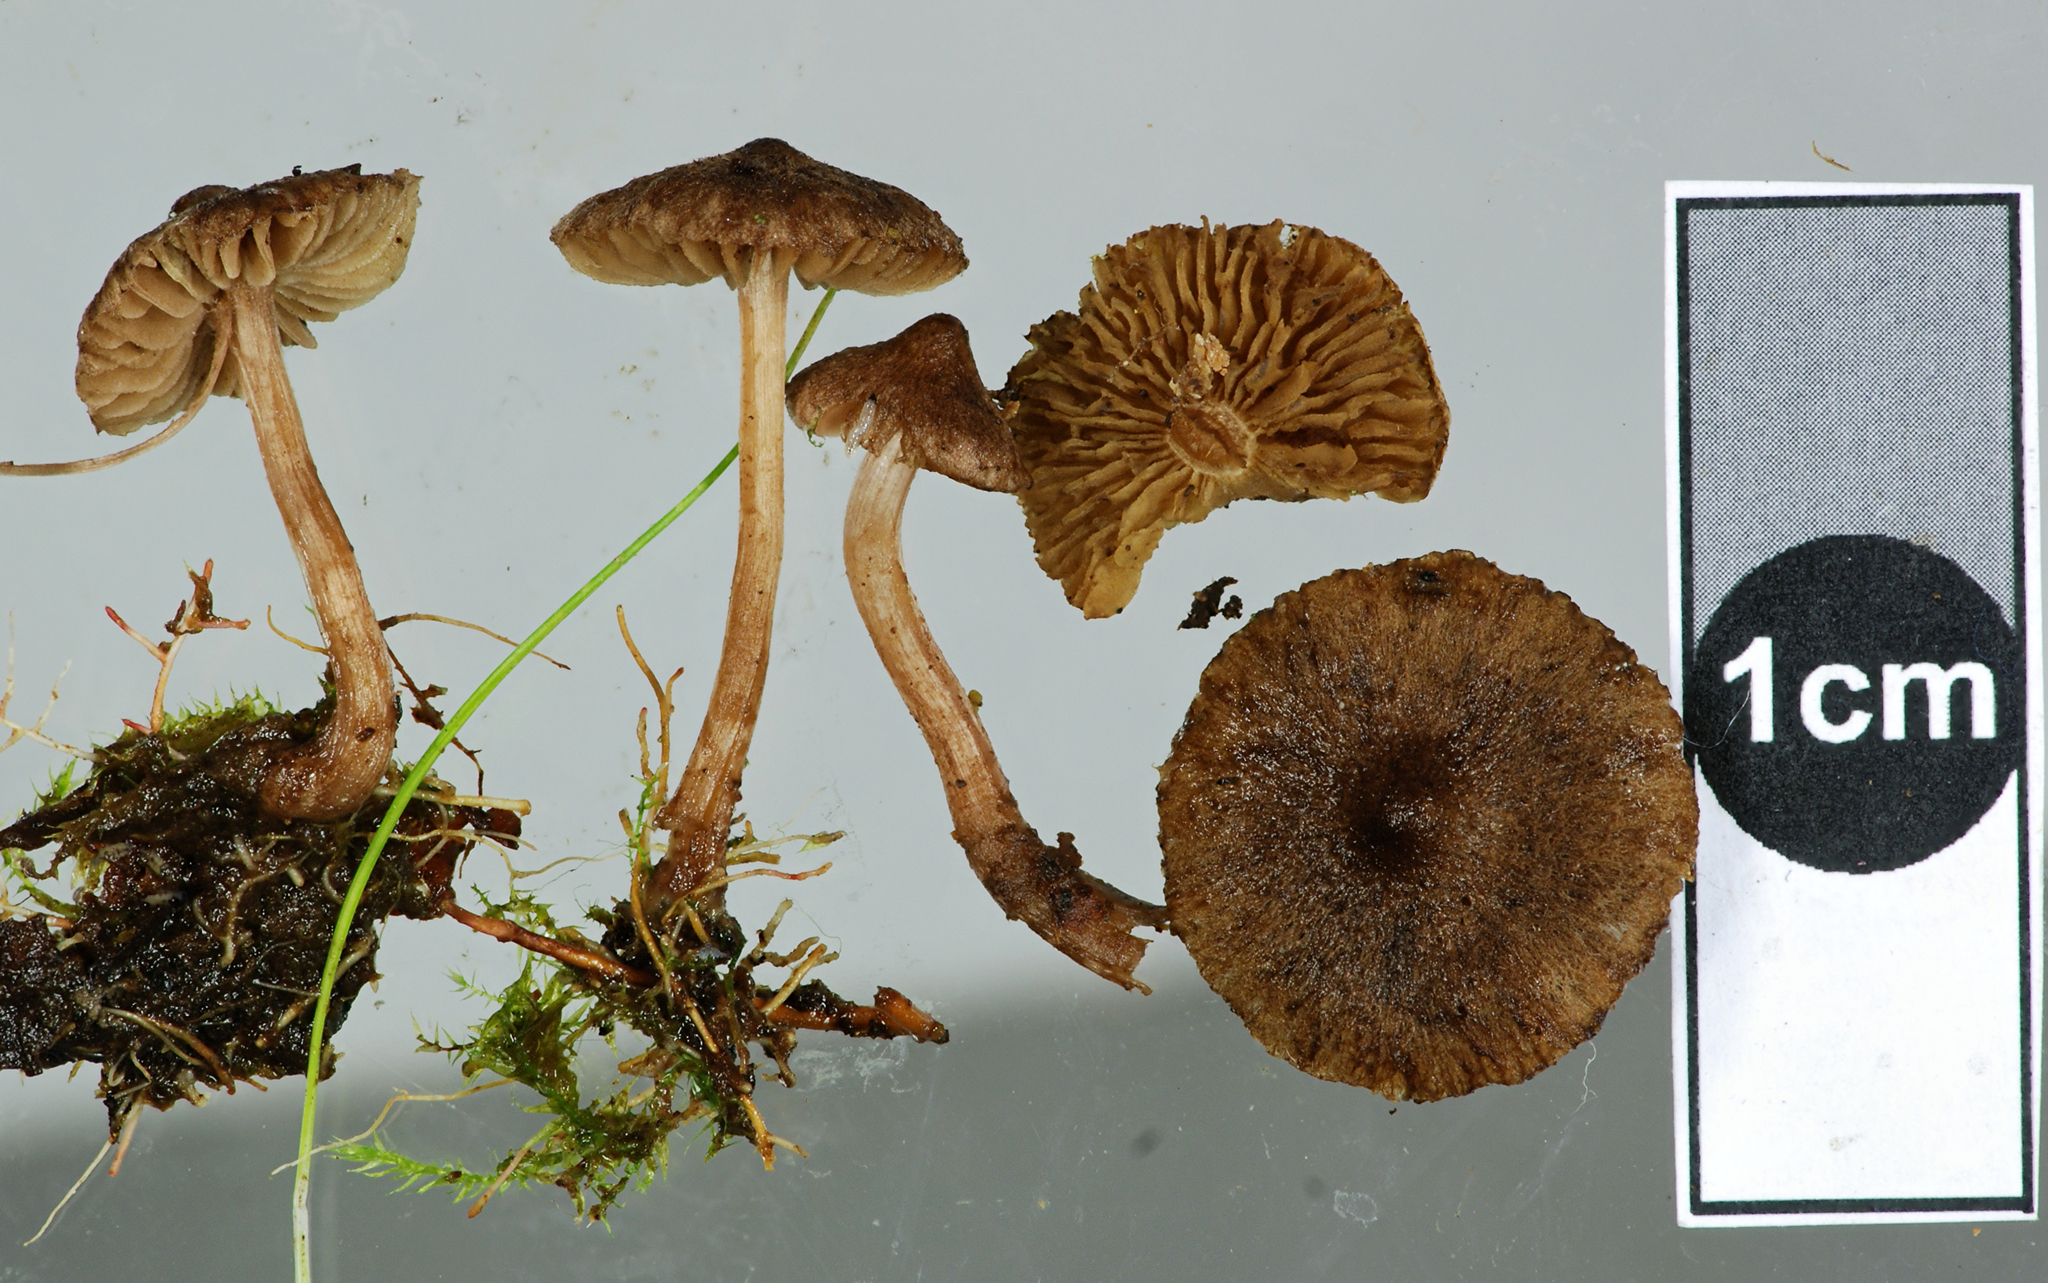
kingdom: Fungi
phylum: Basidiomycota
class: Agaricomycetes
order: Agaricales
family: Inocybaceae
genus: Inocybe
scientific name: Inocybe helobia
